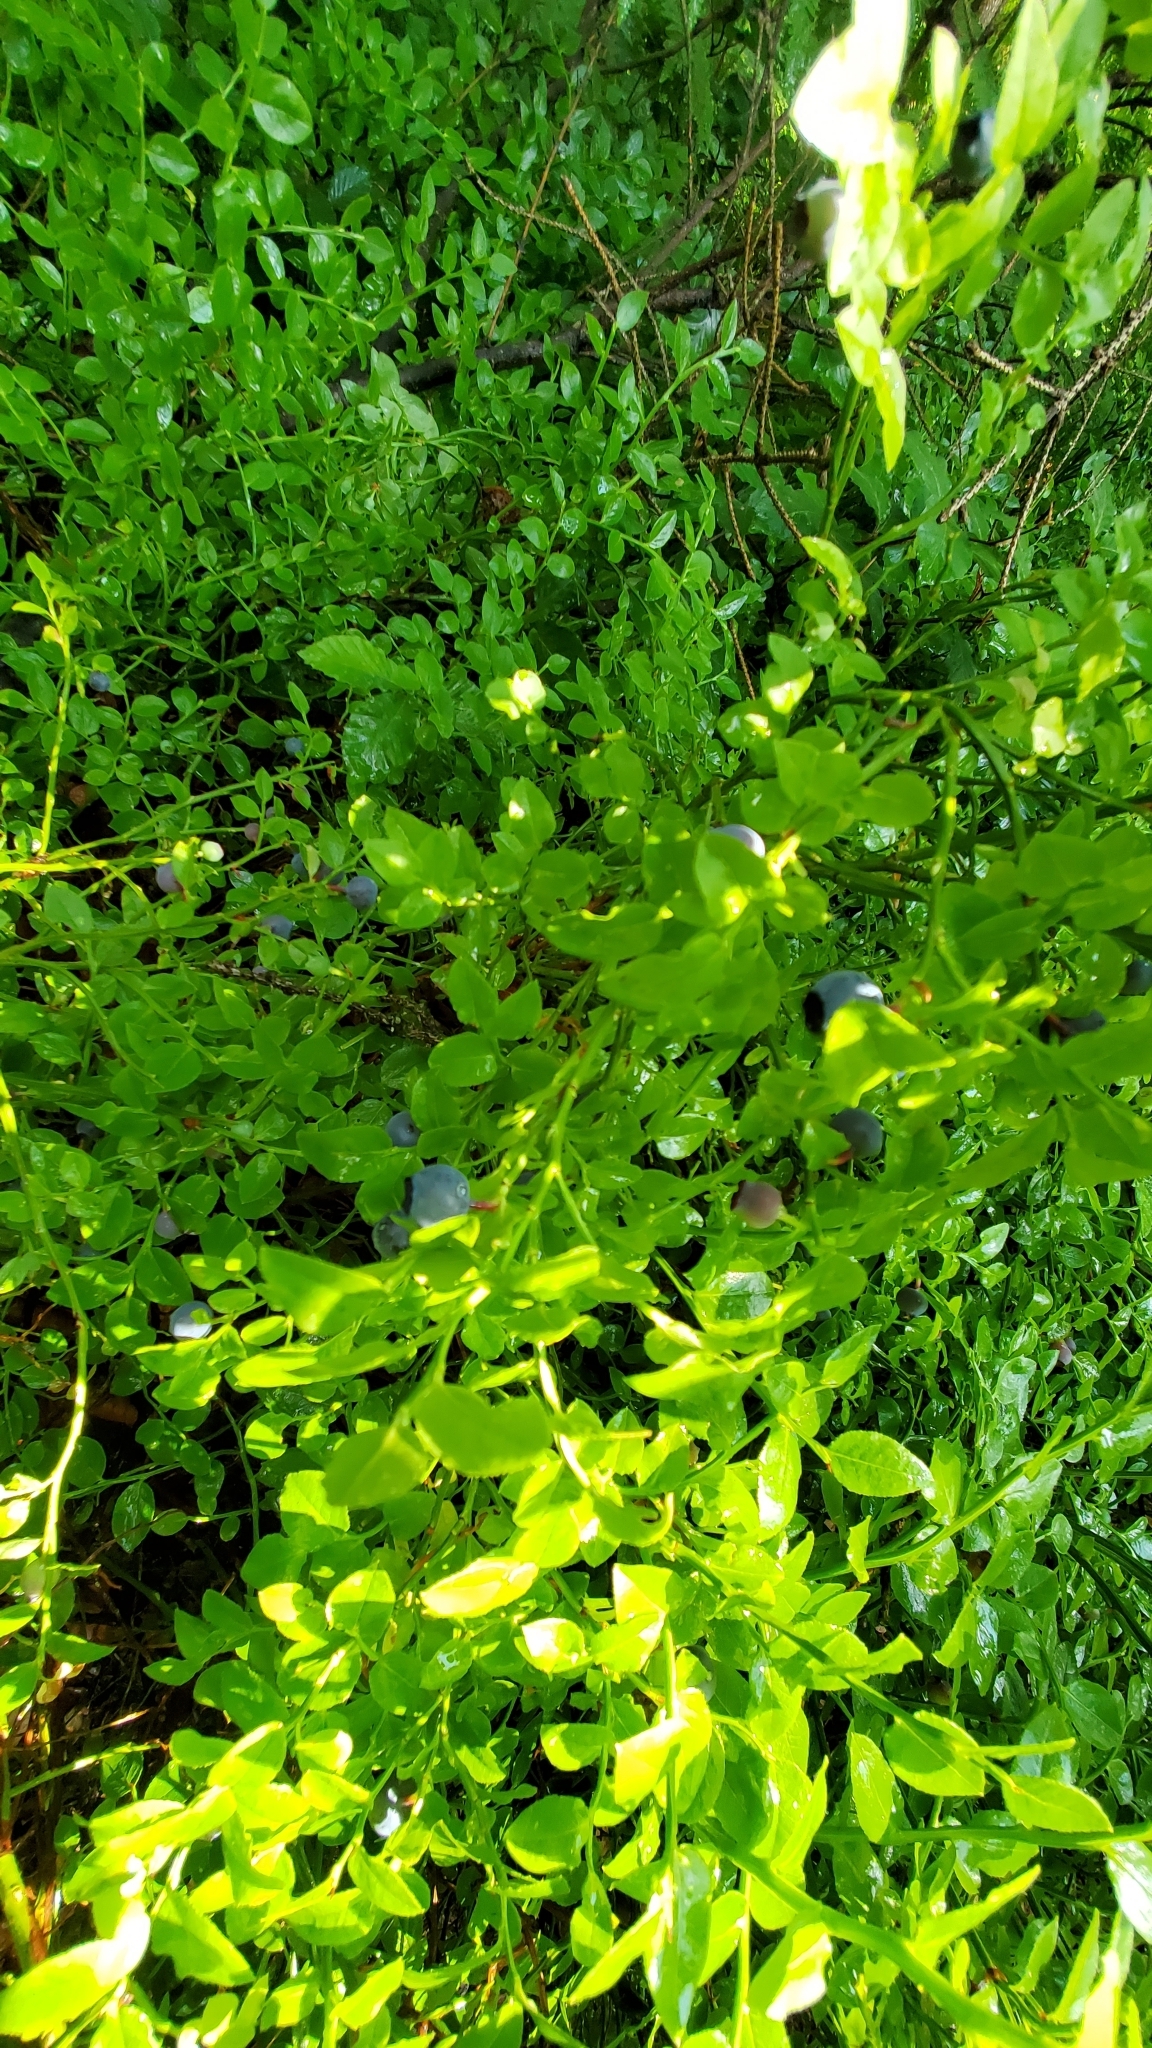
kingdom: Plantae
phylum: Tracheophyta
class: Magnoliopsida
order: Ericales
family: Ericaceae
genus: Vaccinium
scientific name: Vaccinium myrtillus
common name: Bilberry
